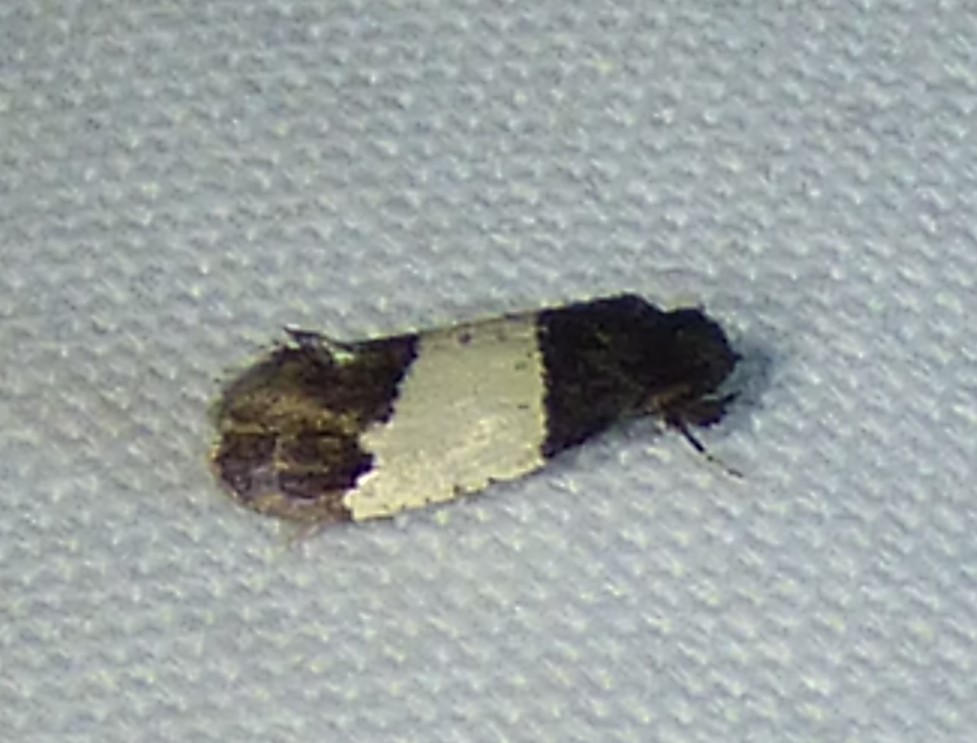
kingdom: Animalia
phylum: Arthropoda
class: Insecta
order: Lepidoptera
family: Psychidae
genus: Kearfottia
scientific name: Kearfottia albifasciella
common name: White-patched kearfottia
